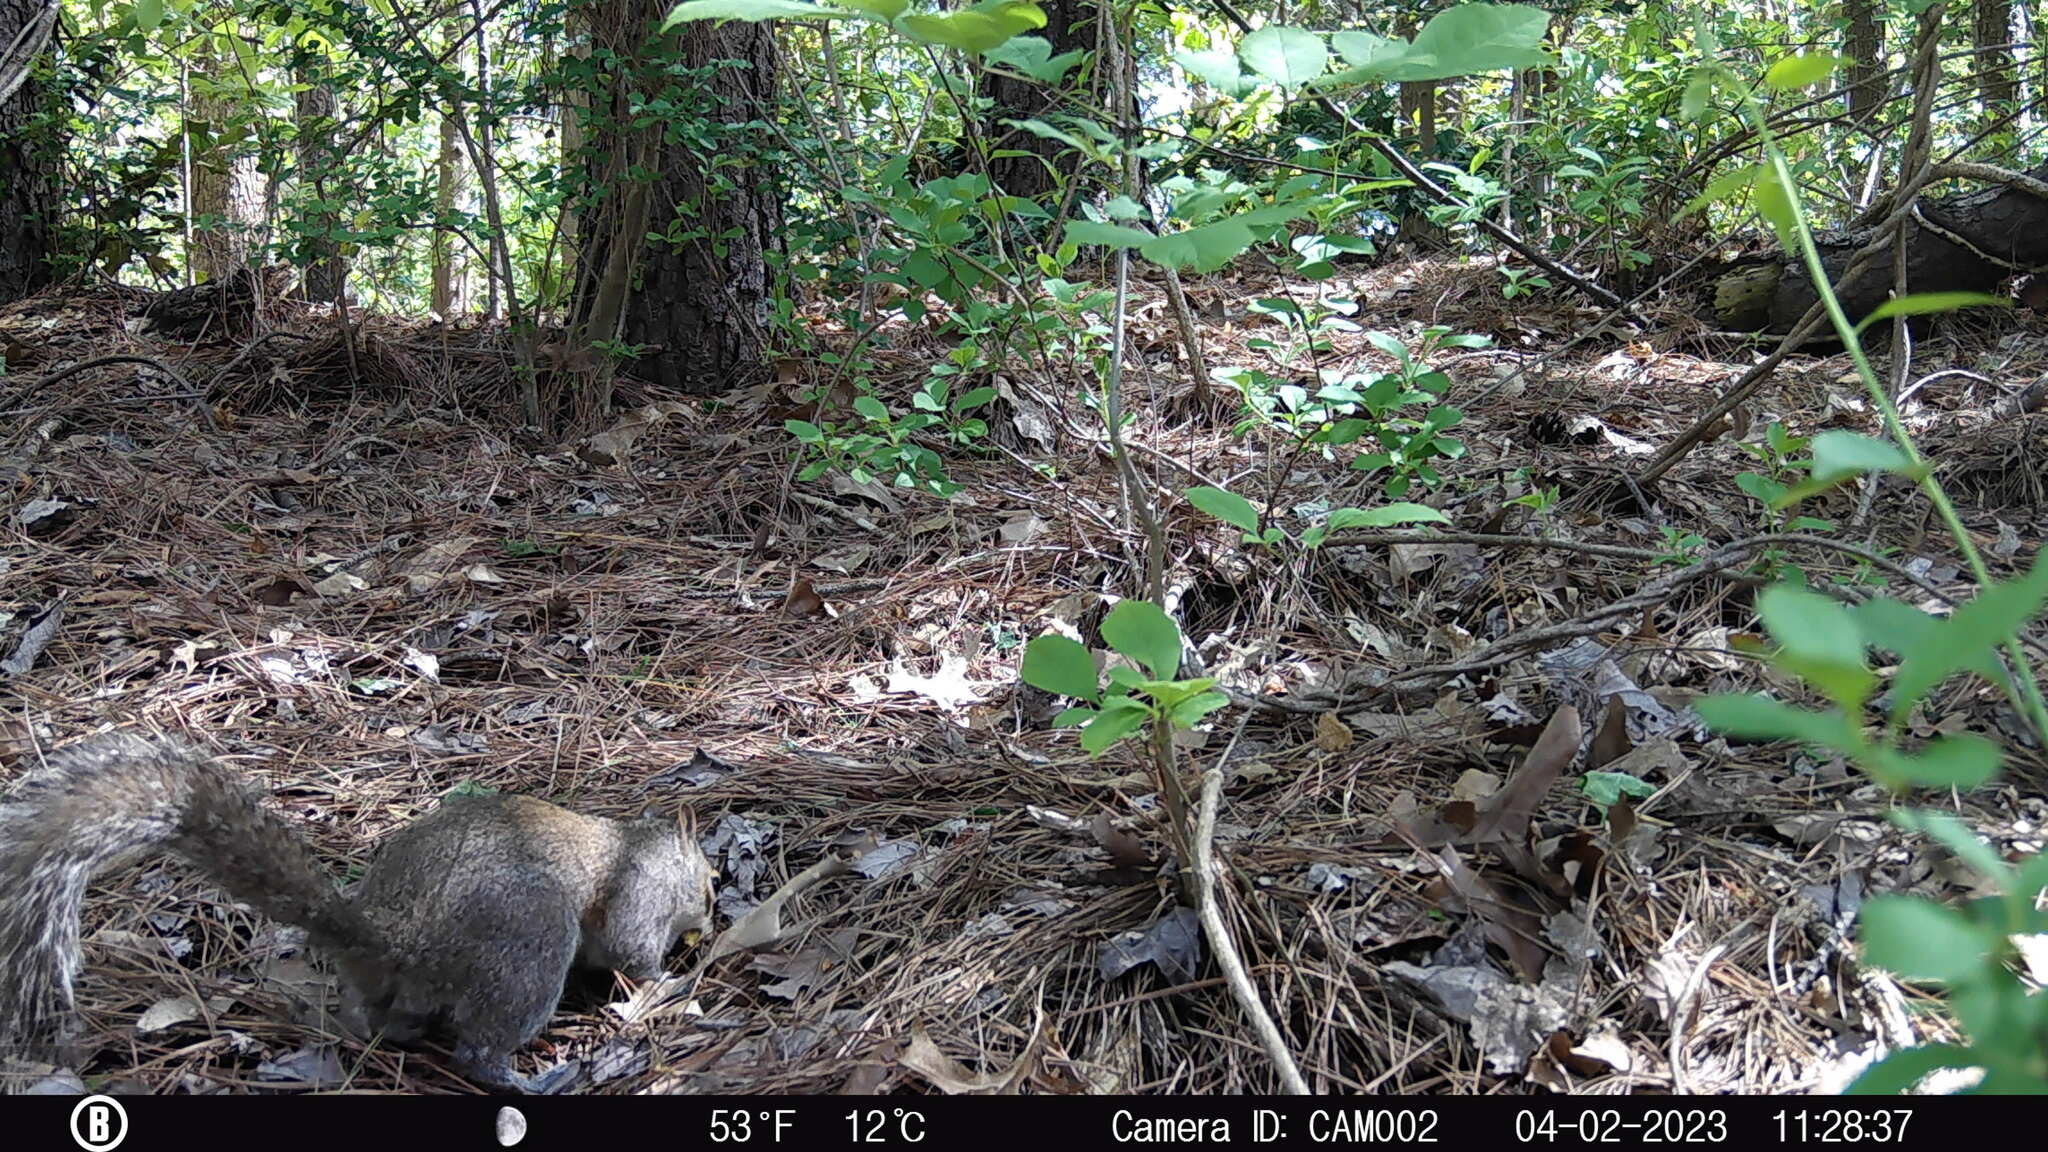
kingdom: Animalia
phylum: Chordata
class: Mammalia
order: Rodentia
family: Sciuridae
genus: Sciurus
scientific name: Sciurus carolinensis
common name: Eastern gray squirrel
